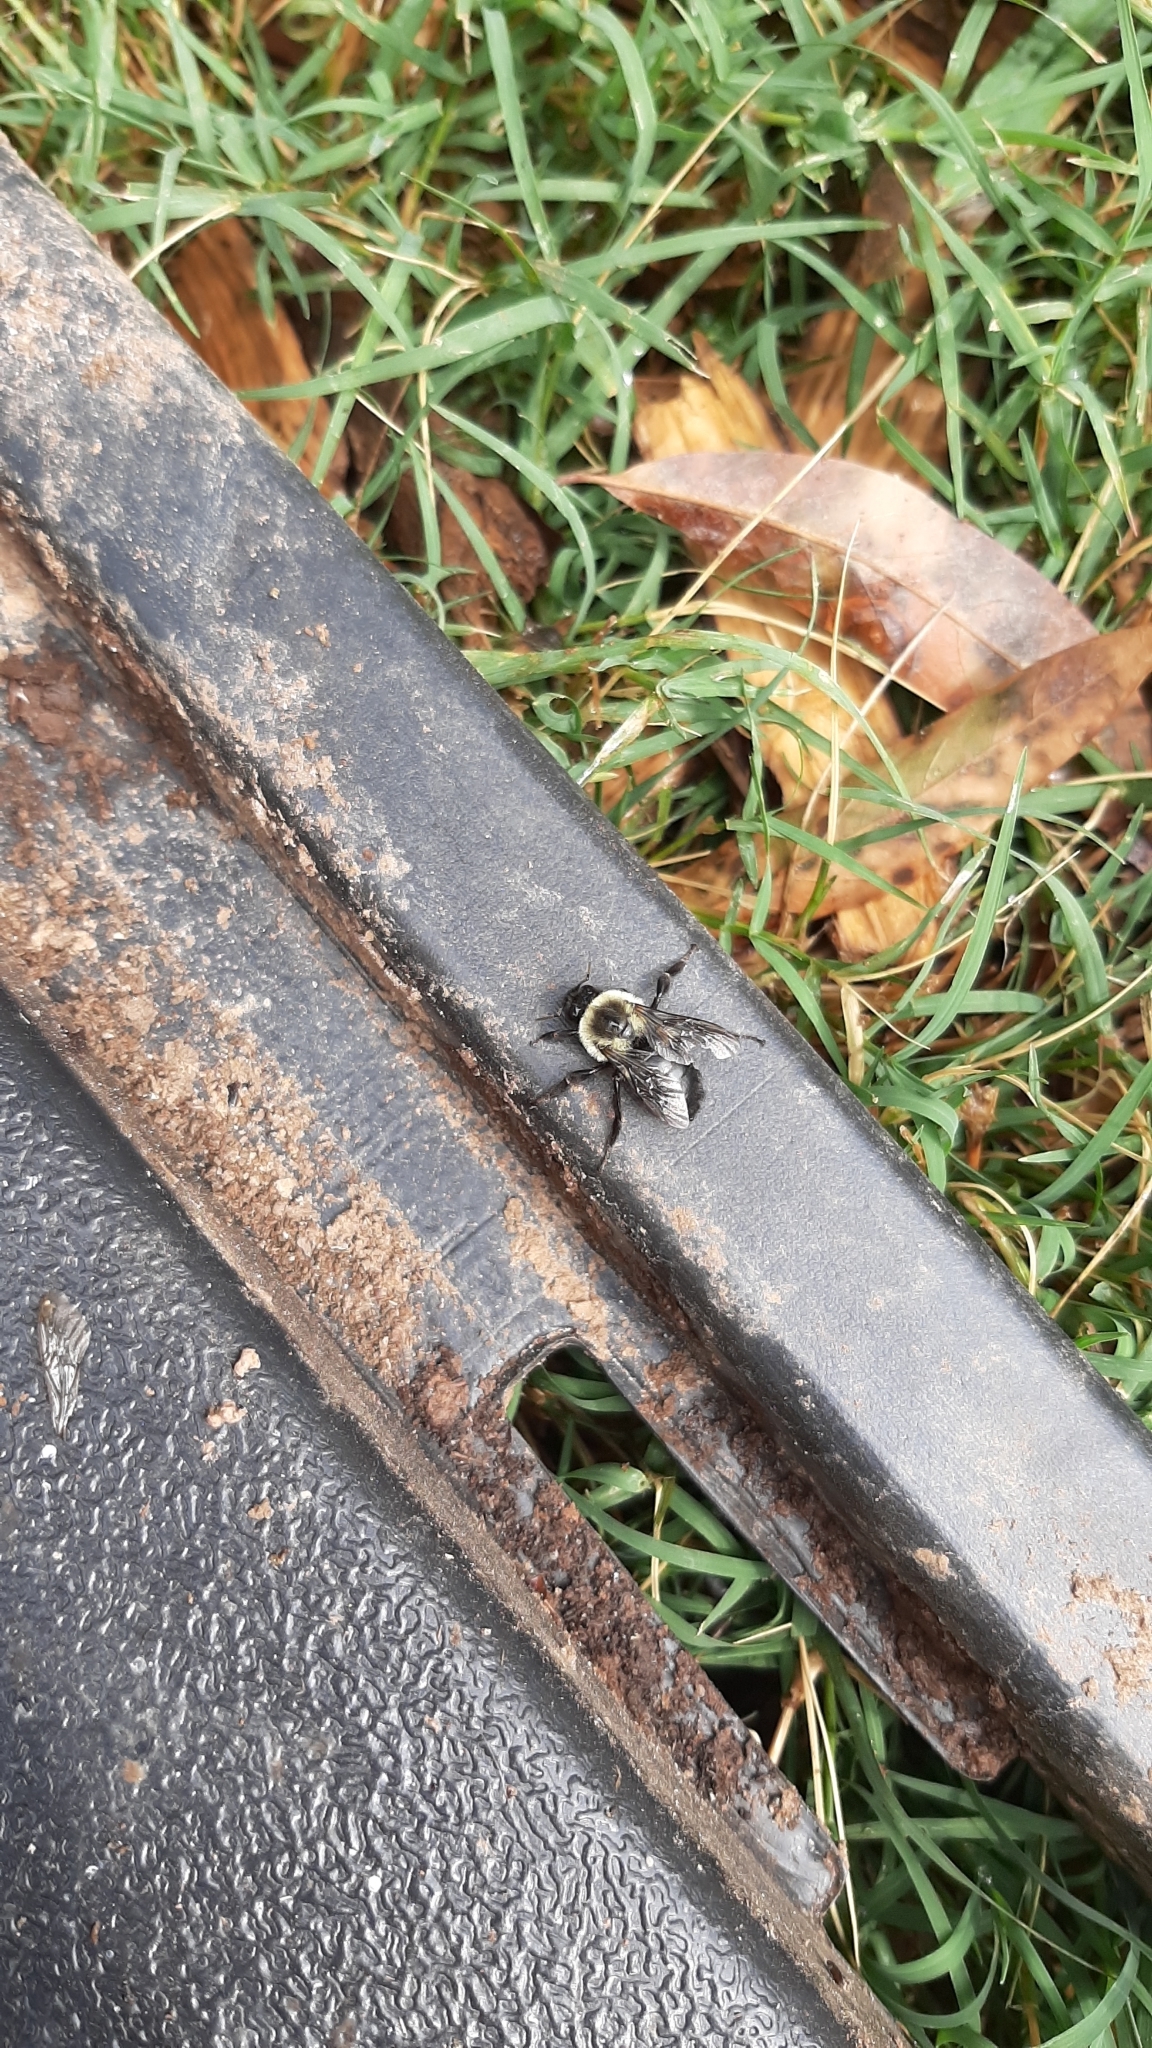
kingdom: Animalia
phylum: Arthropoda
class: Insecta
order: Hymenoptera
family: Apidae
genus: Bombus
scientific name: Bombus impatiens
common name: Common eastern bumble bee
